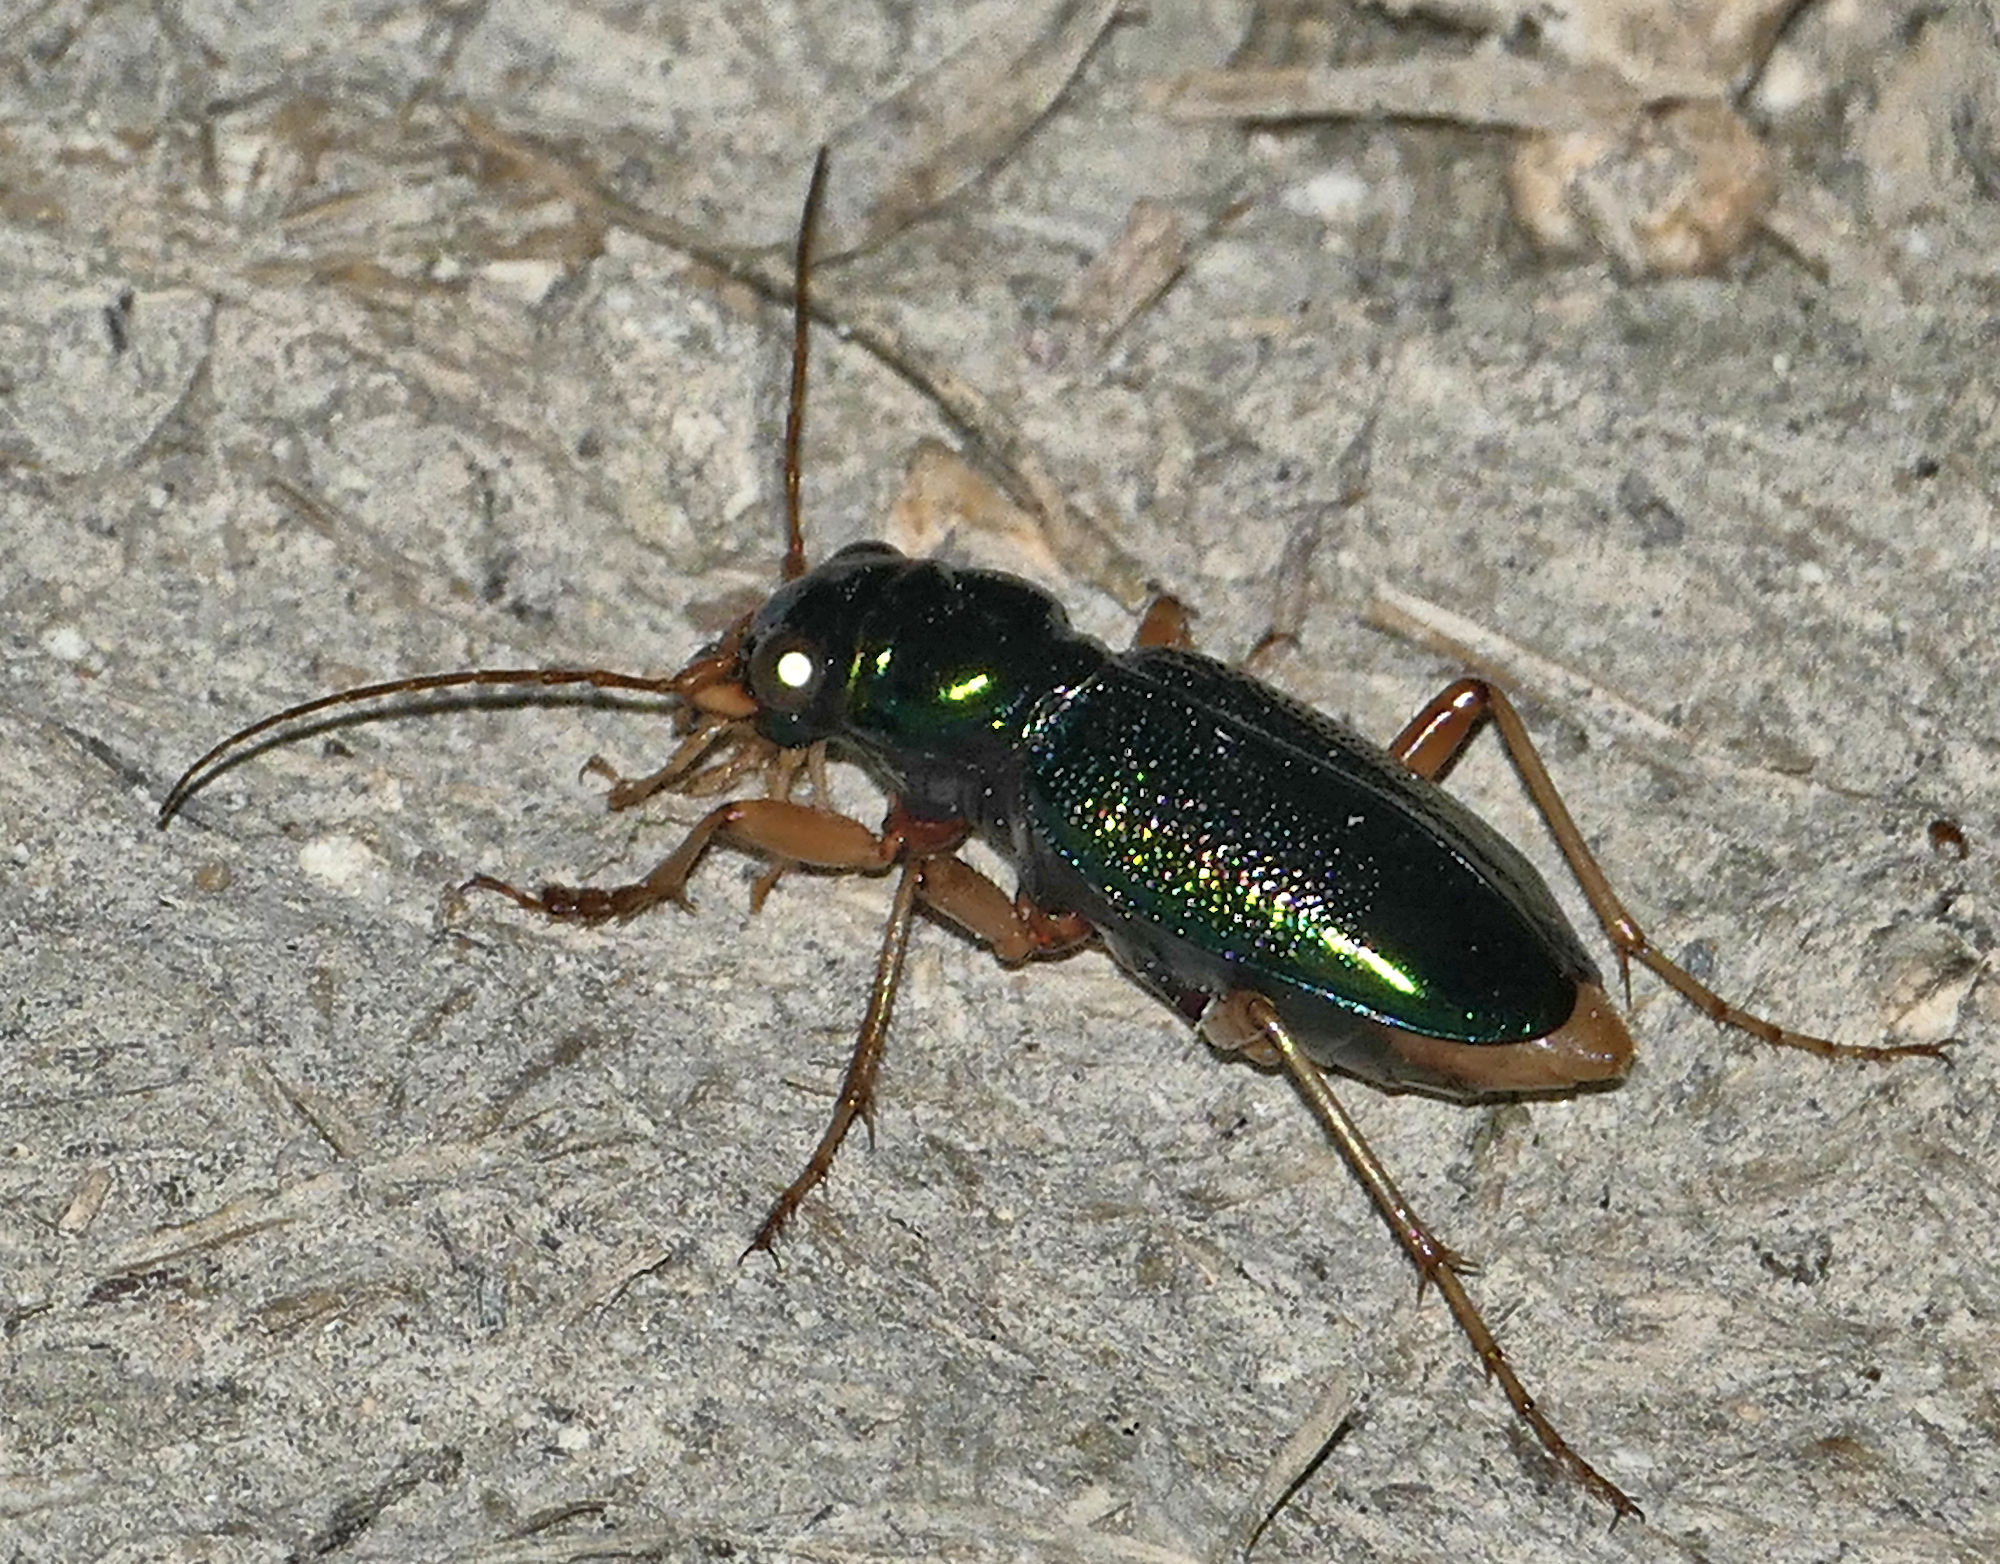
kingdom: Animalia
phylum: Arthropoda
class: Insecta
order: Coleoptera
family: Carabidae
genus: Tetracha
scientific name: Tetracha virginica
